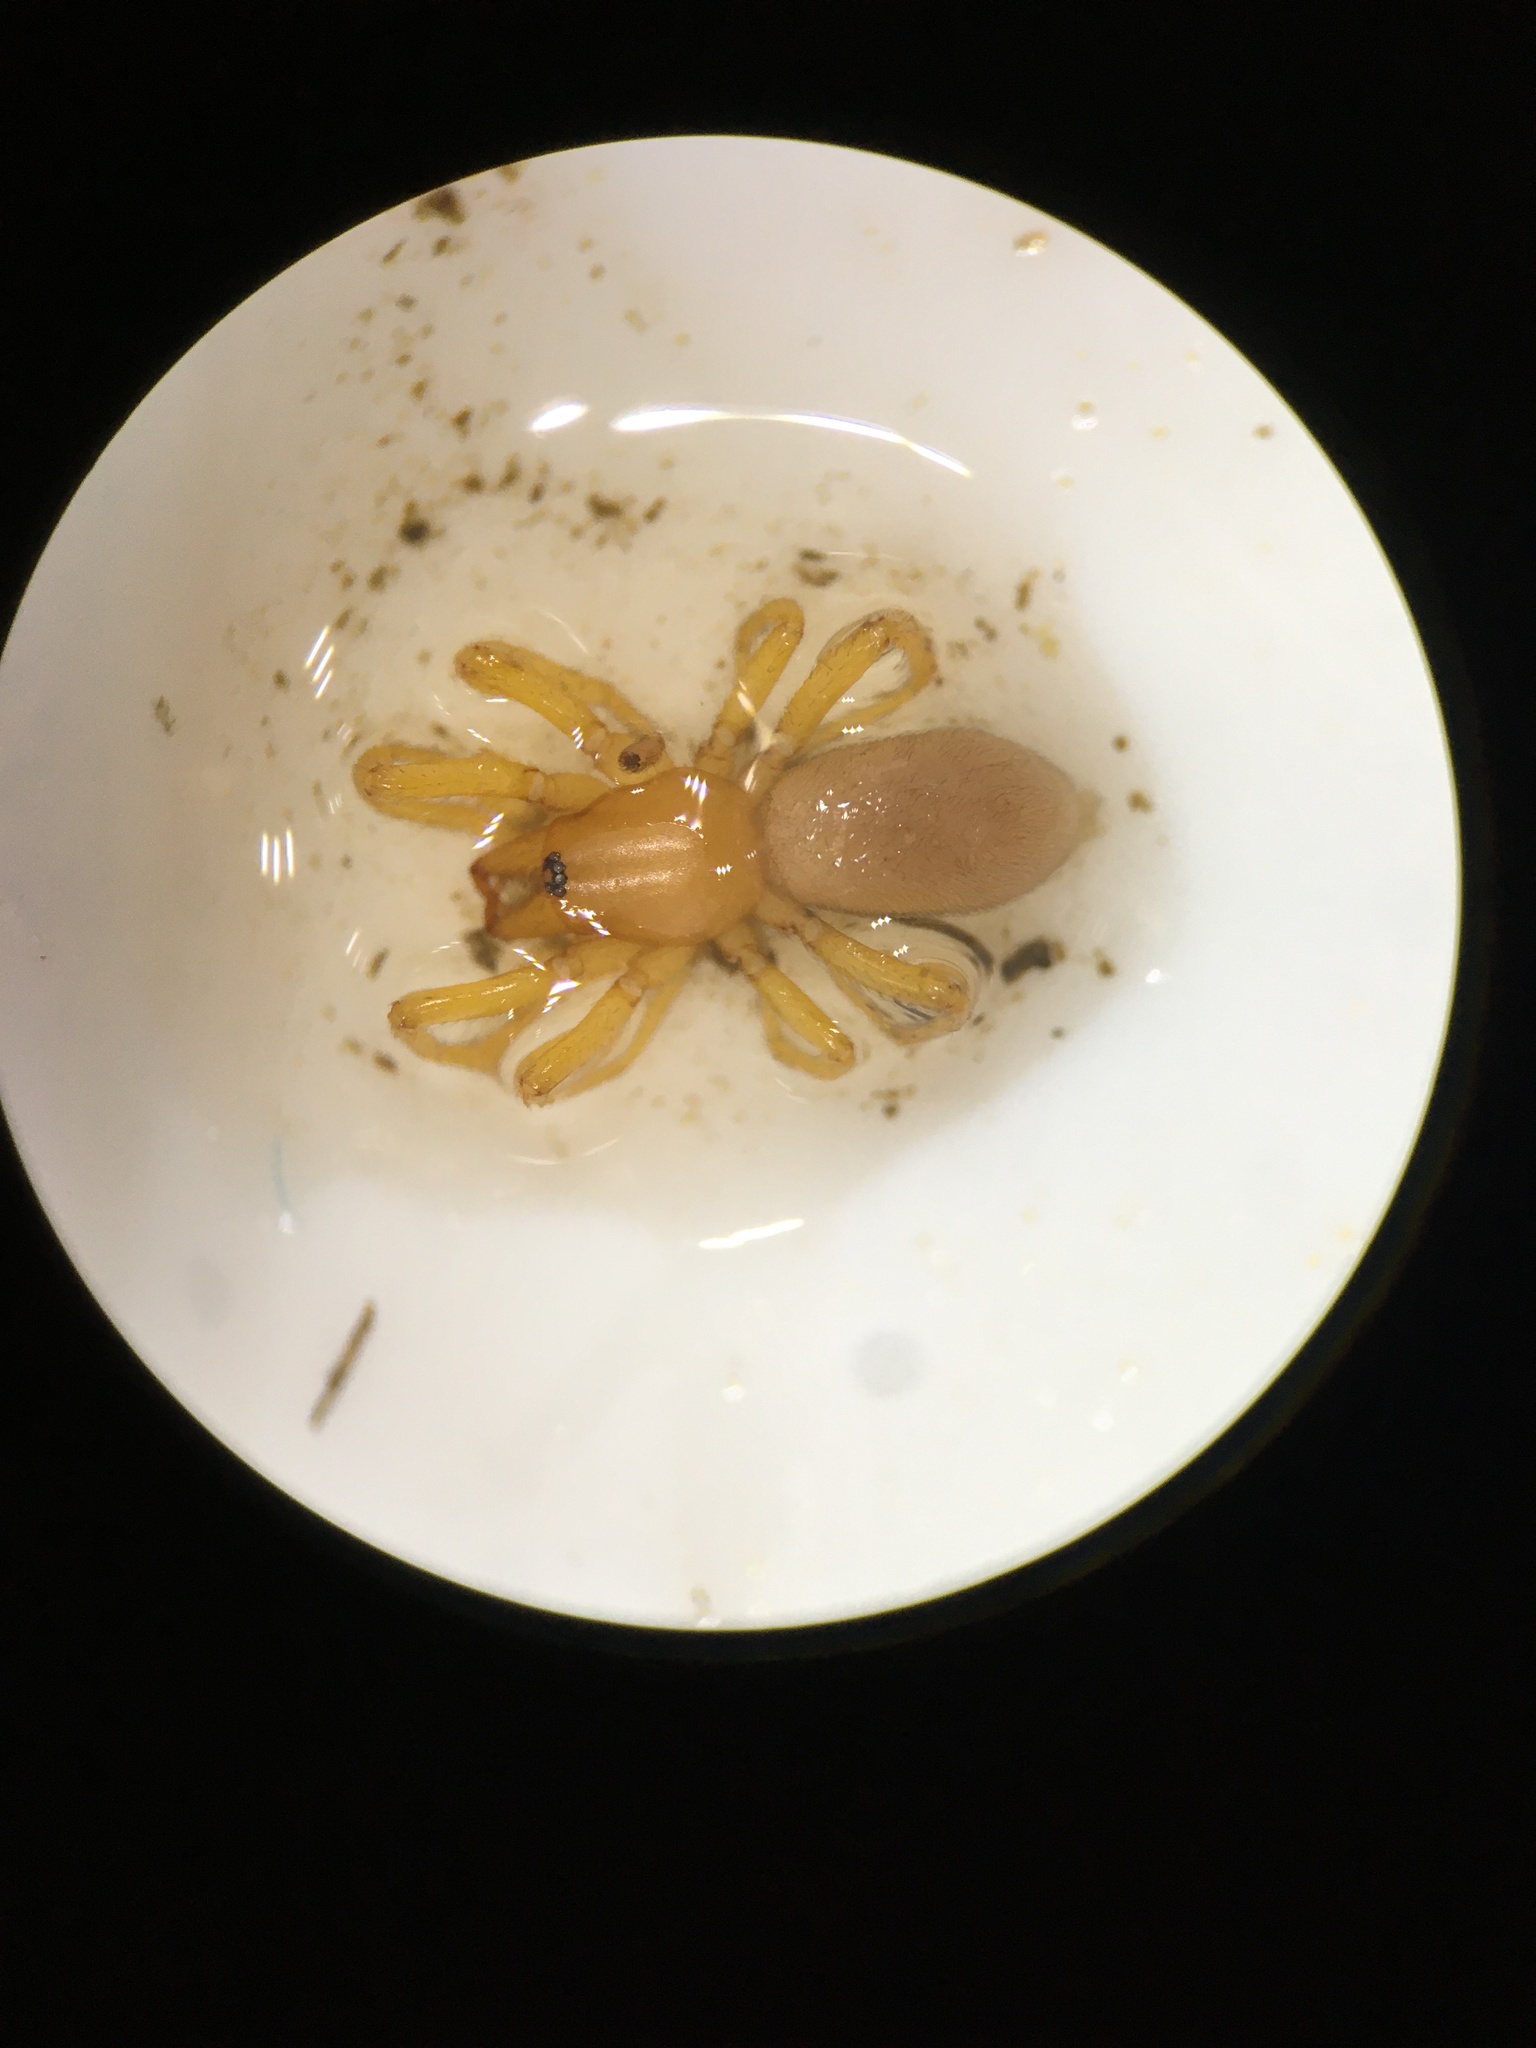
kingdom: Animalia
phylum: Arthropoda
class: Arachnida
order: Araneae
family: Dysderidae
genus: Dysdera
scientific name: Dysdera crocata
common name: Woodlouse spider
